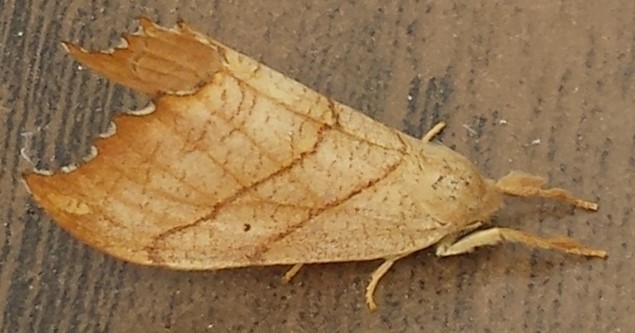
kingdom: Animalia
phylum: Arthropoda
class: Insecta
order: Lepidoptera
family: Drepanidae
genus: Falcaria
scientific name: Falcaria bilineata
